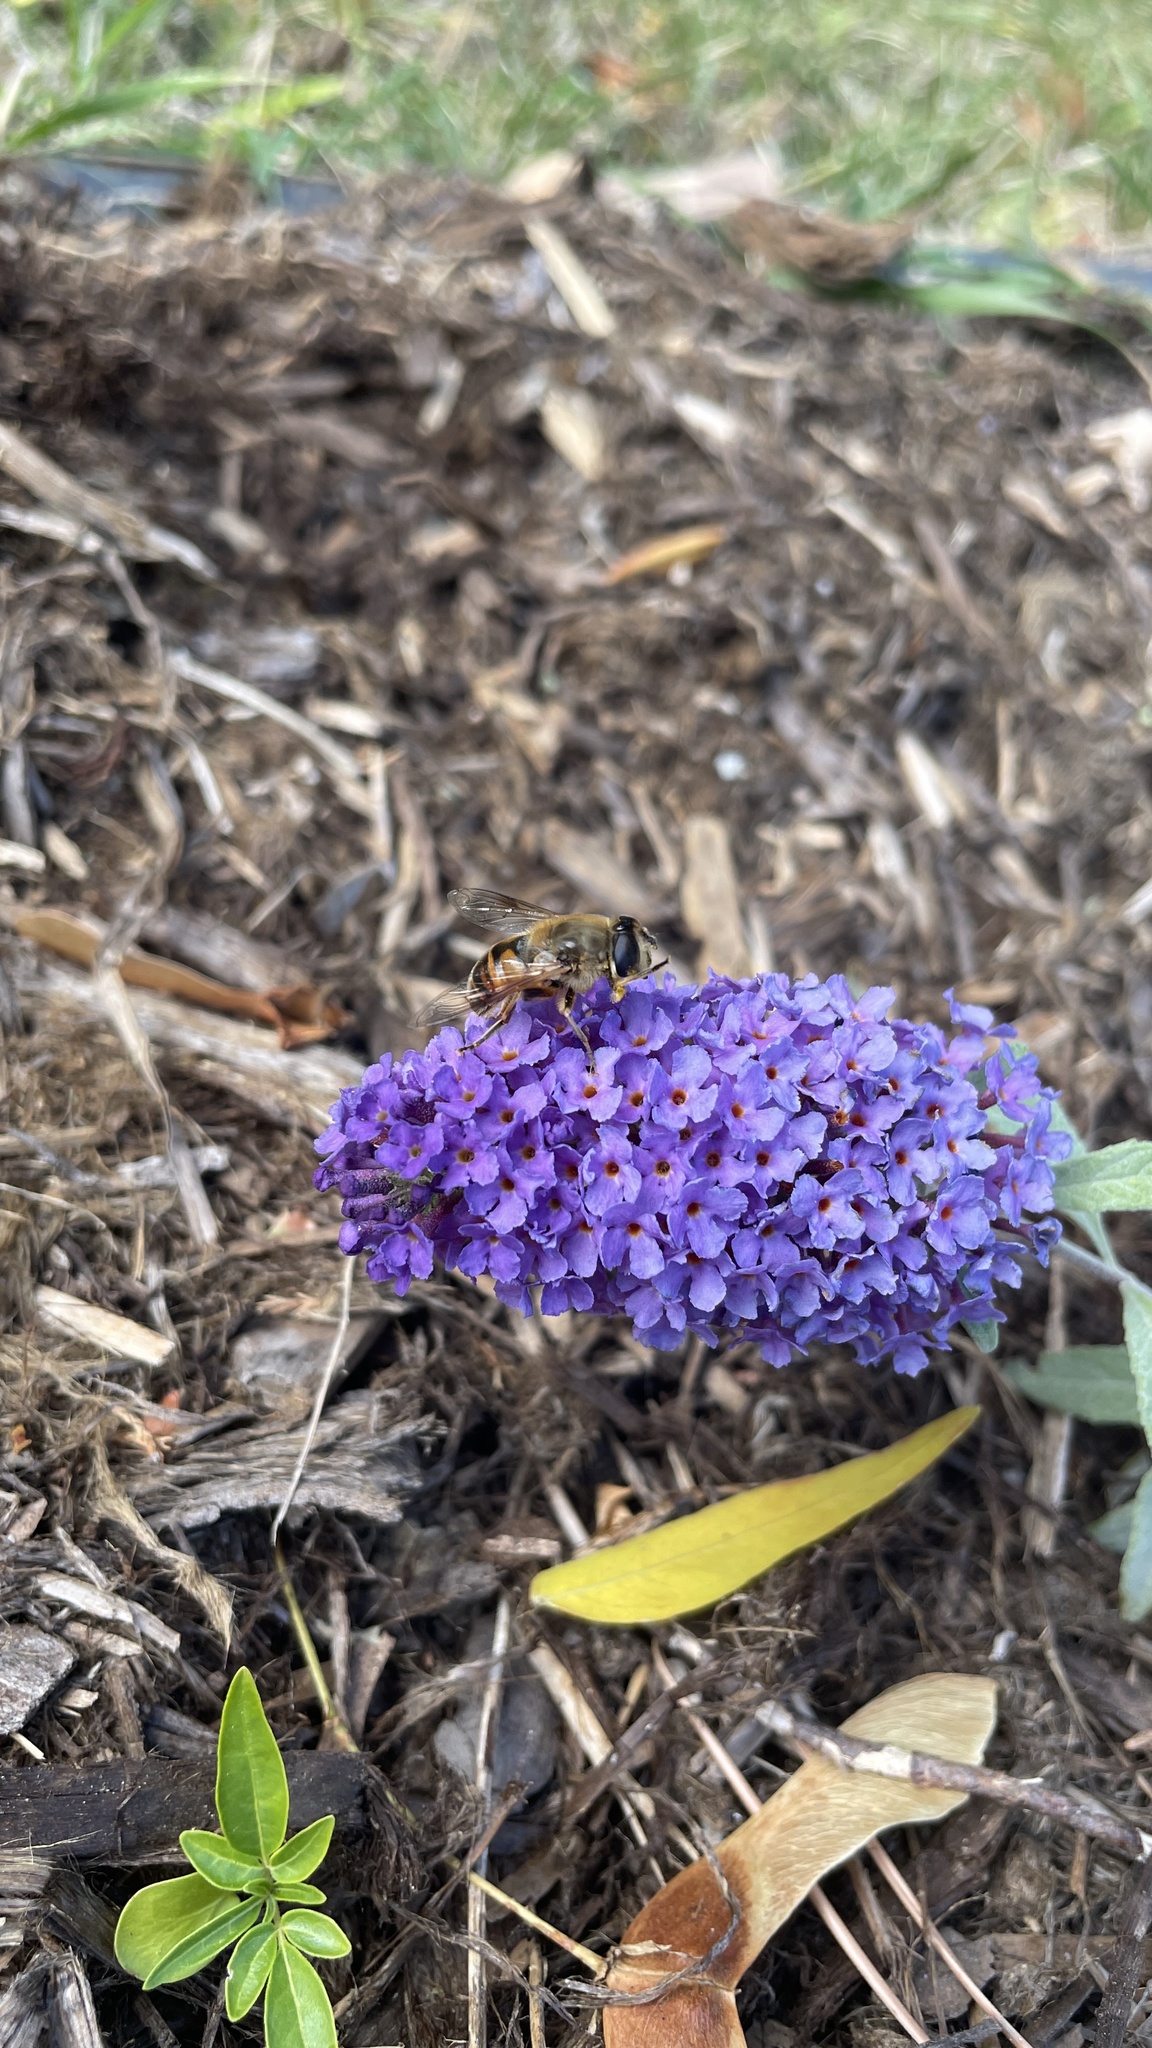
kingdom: Animalia
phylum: Arthropoda
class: Insecta
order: Diptera
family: Syrphidae
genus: Eristalis
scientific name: Eristalis tenax
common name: Drone fly
